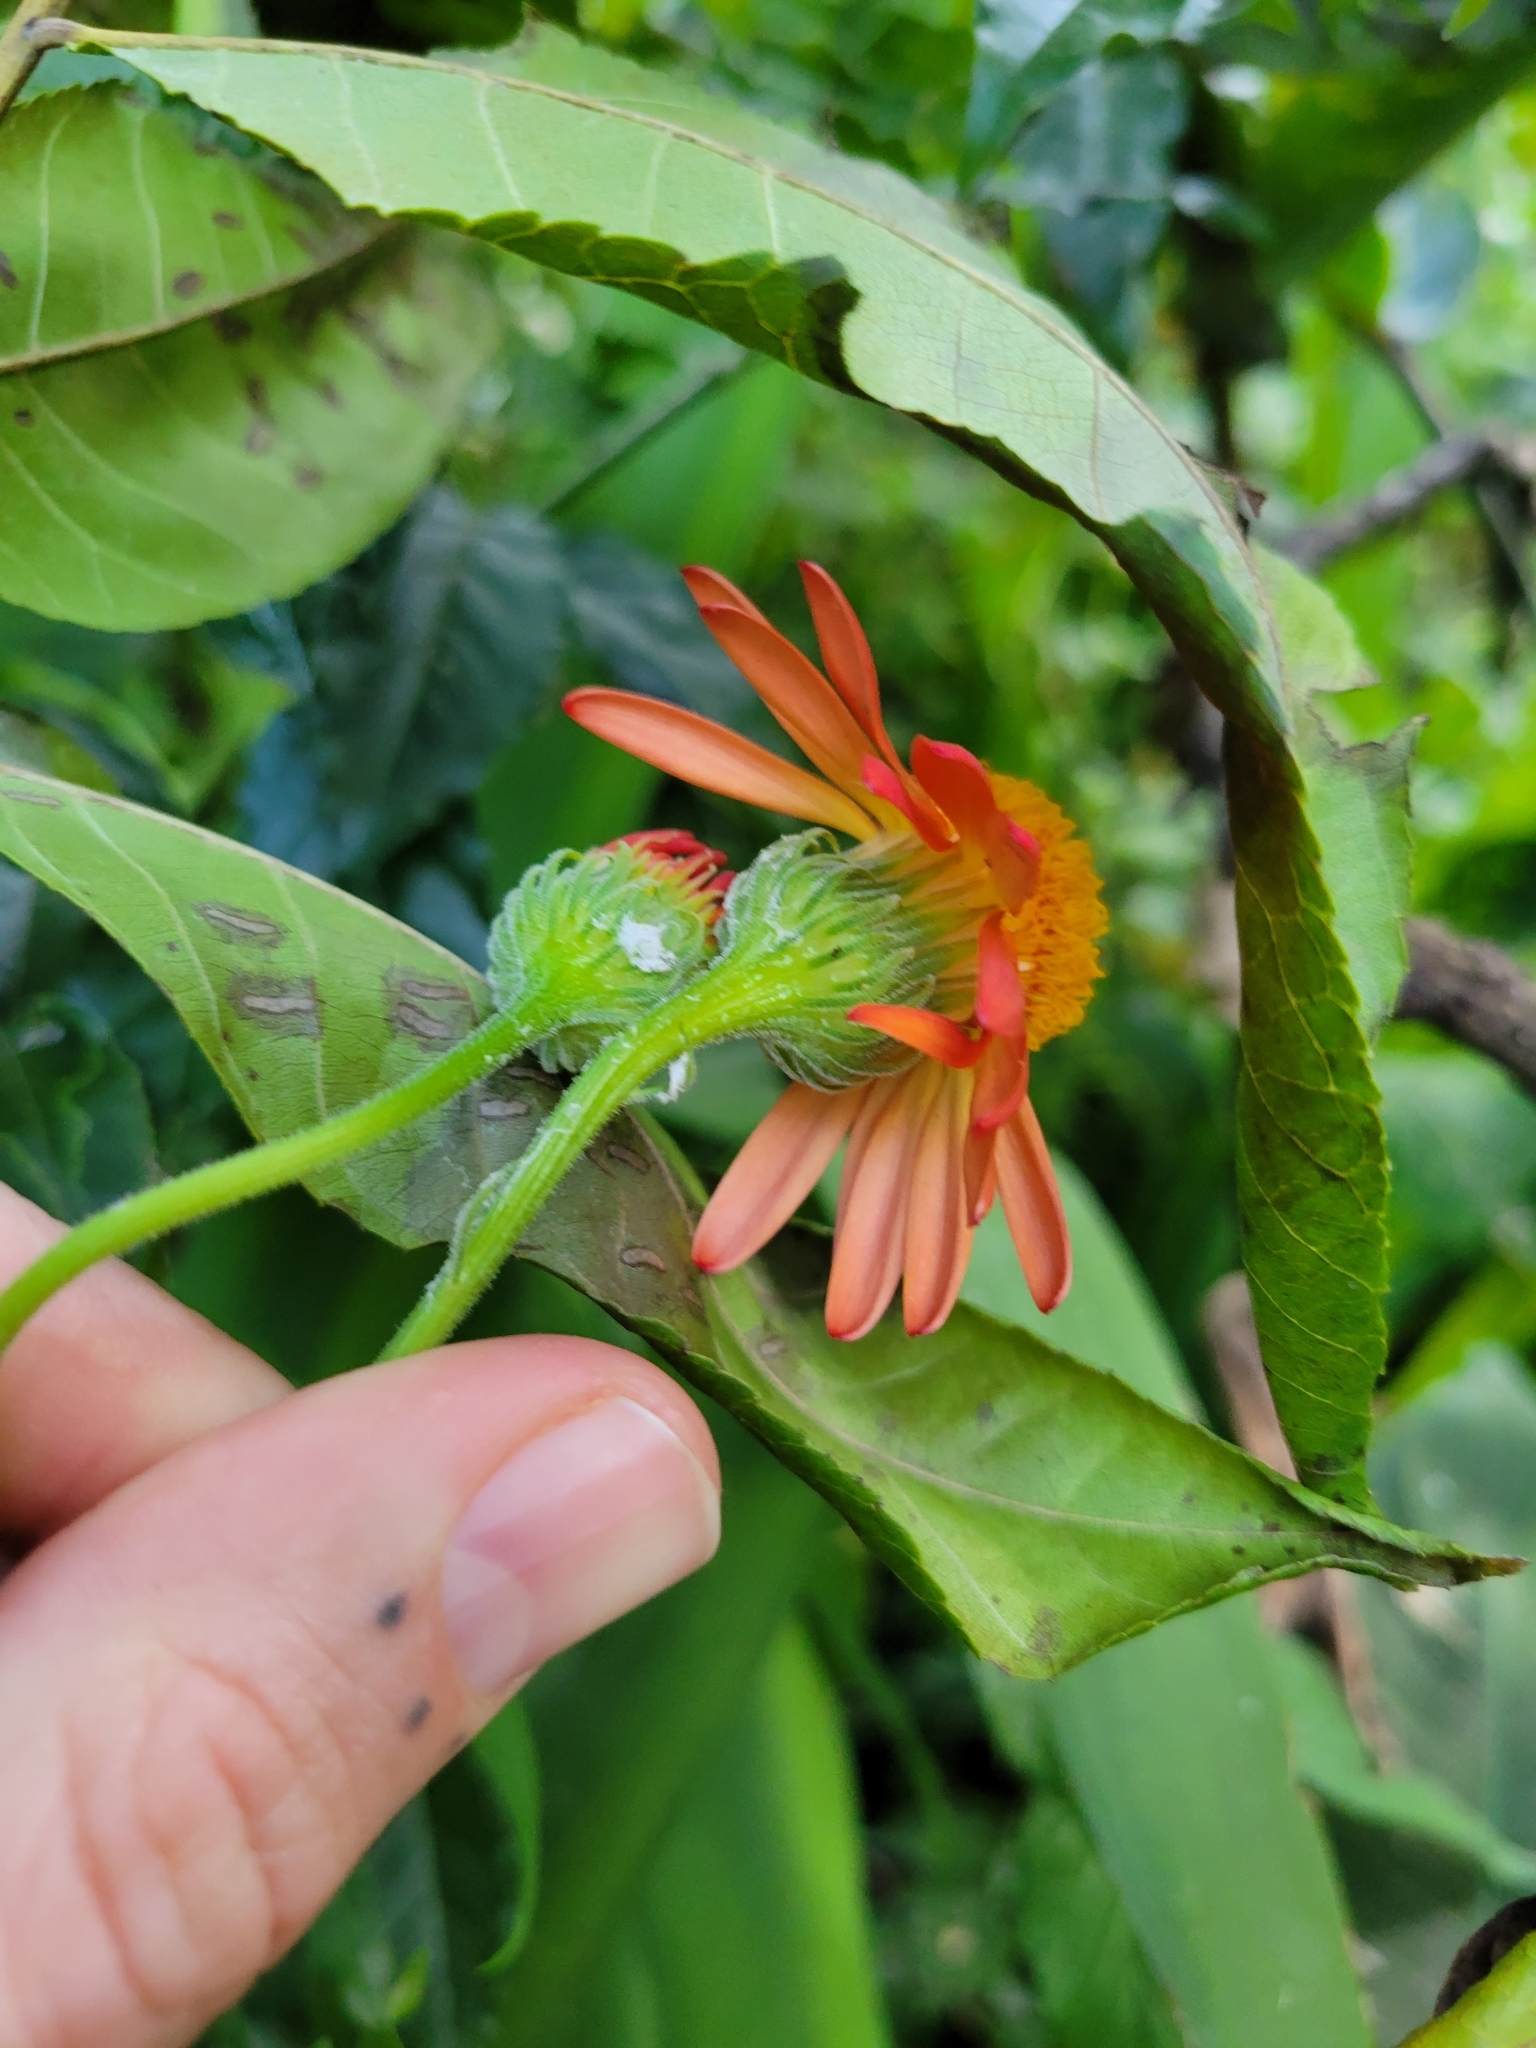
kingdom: Plantae
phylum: Tracheophyta
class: Magnoliopsida
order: Asterales
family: Asteraceae
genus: Pseudogynoxys
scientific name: Pseudogynoxys chenopodioides
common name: Mexican flamevine
